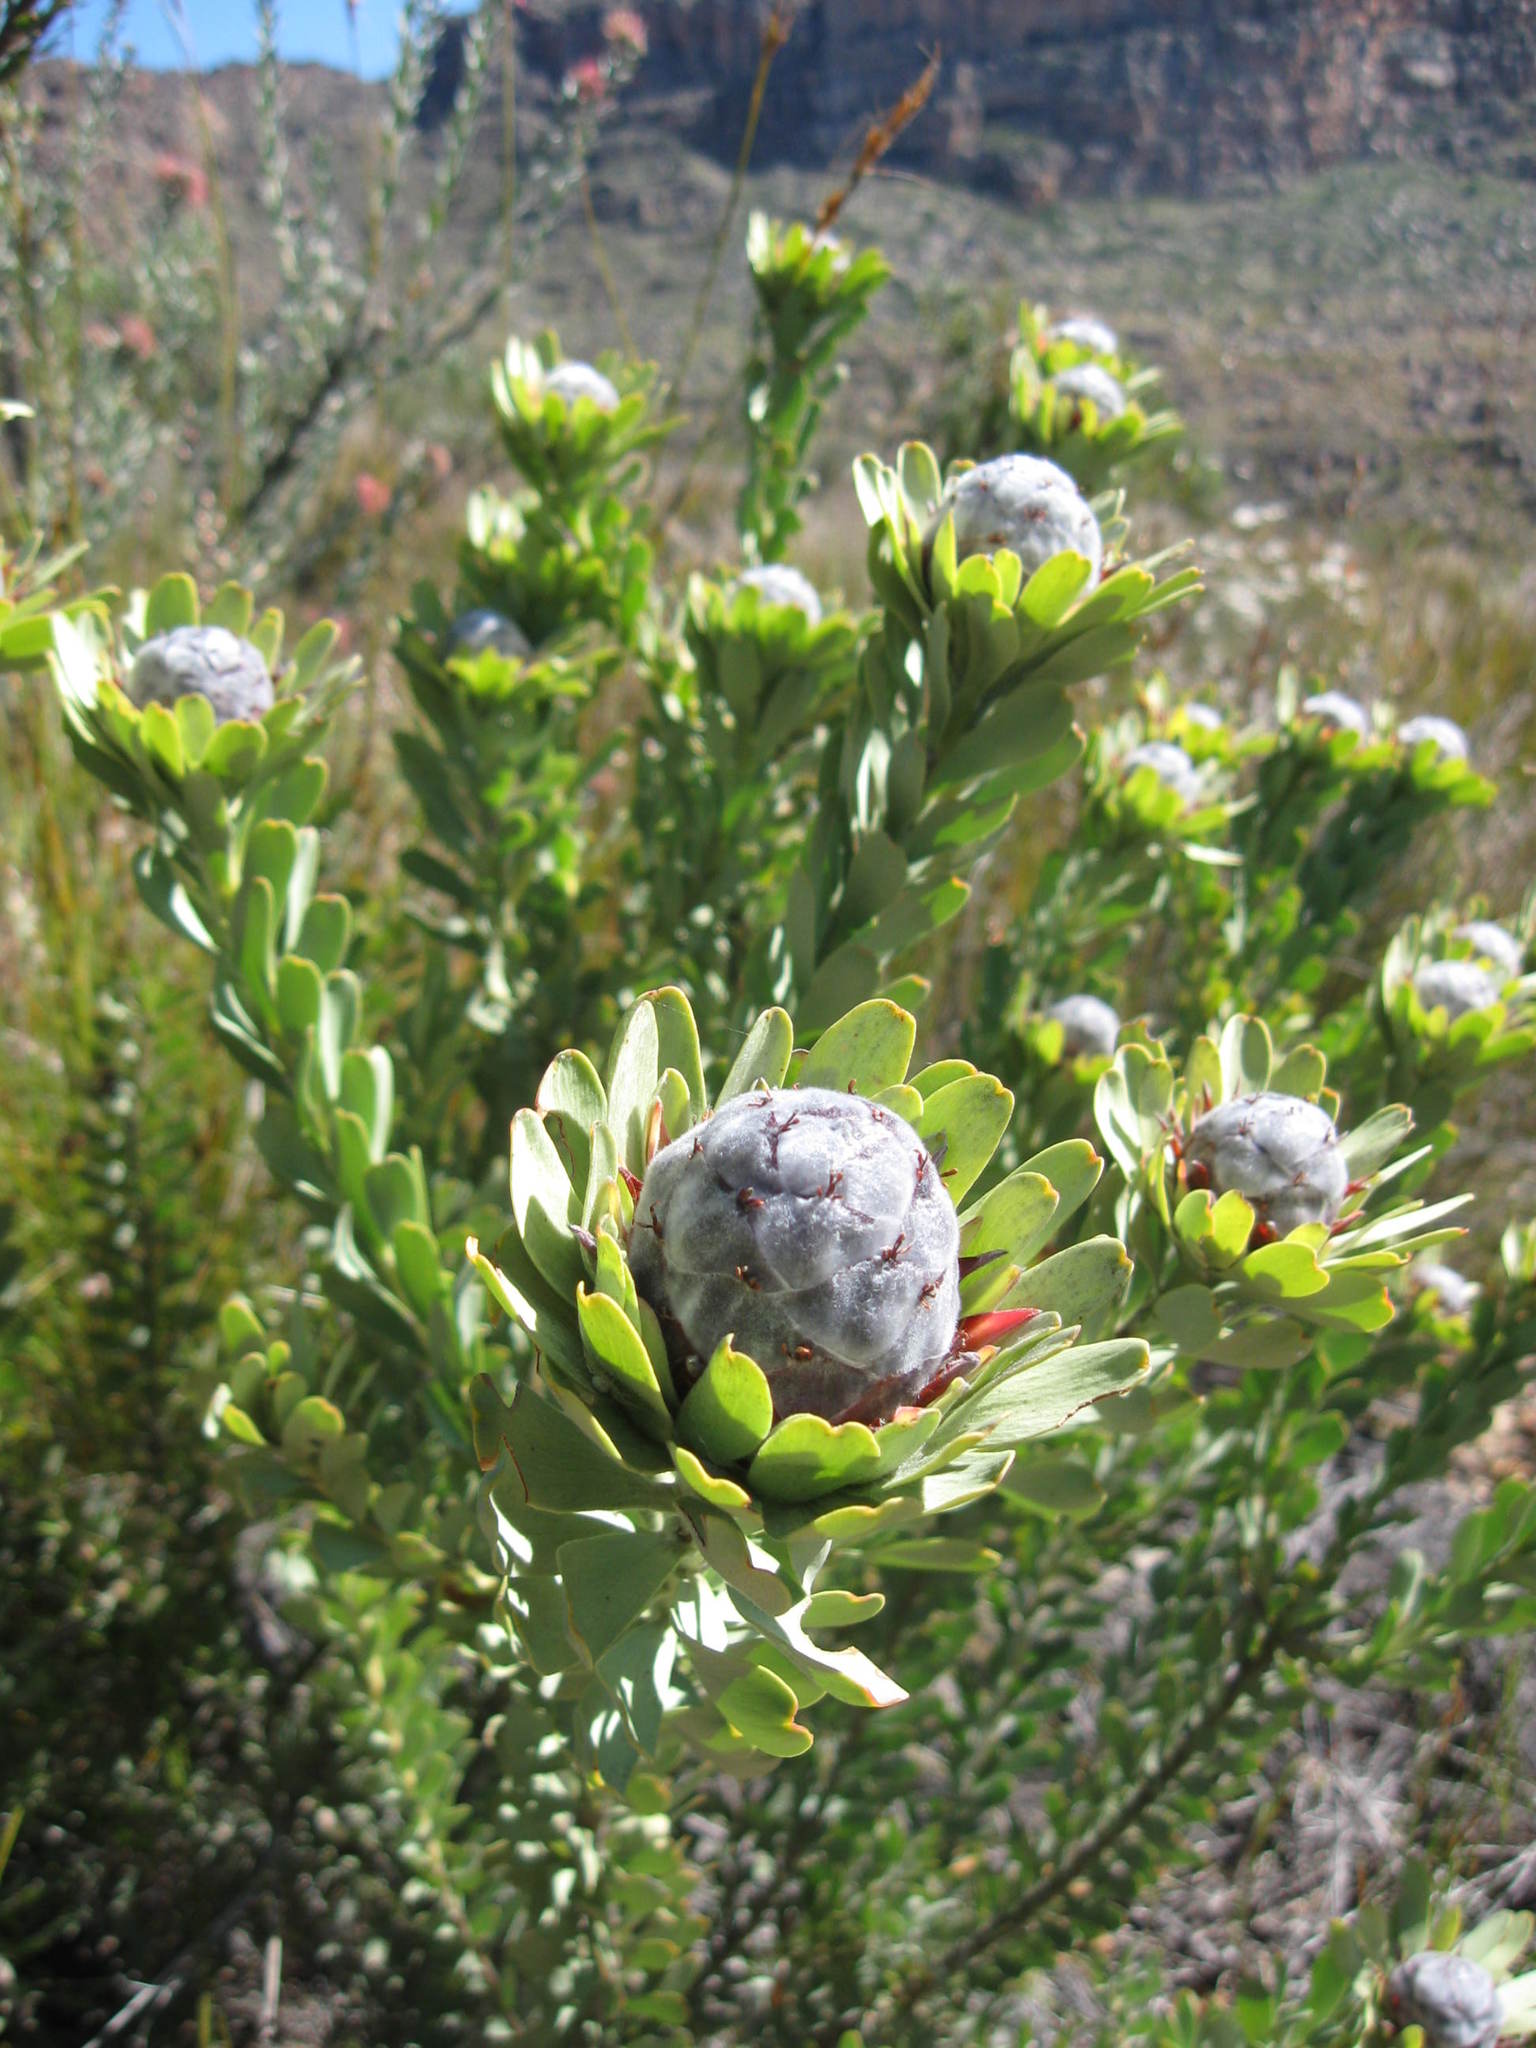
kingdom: Plantae
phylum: Tracheophyta
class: Magnoliopsida
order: Proteales
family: Proteaceae
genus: Leucadendron
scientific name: Leucadendron pubescens
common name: Grey conebush
